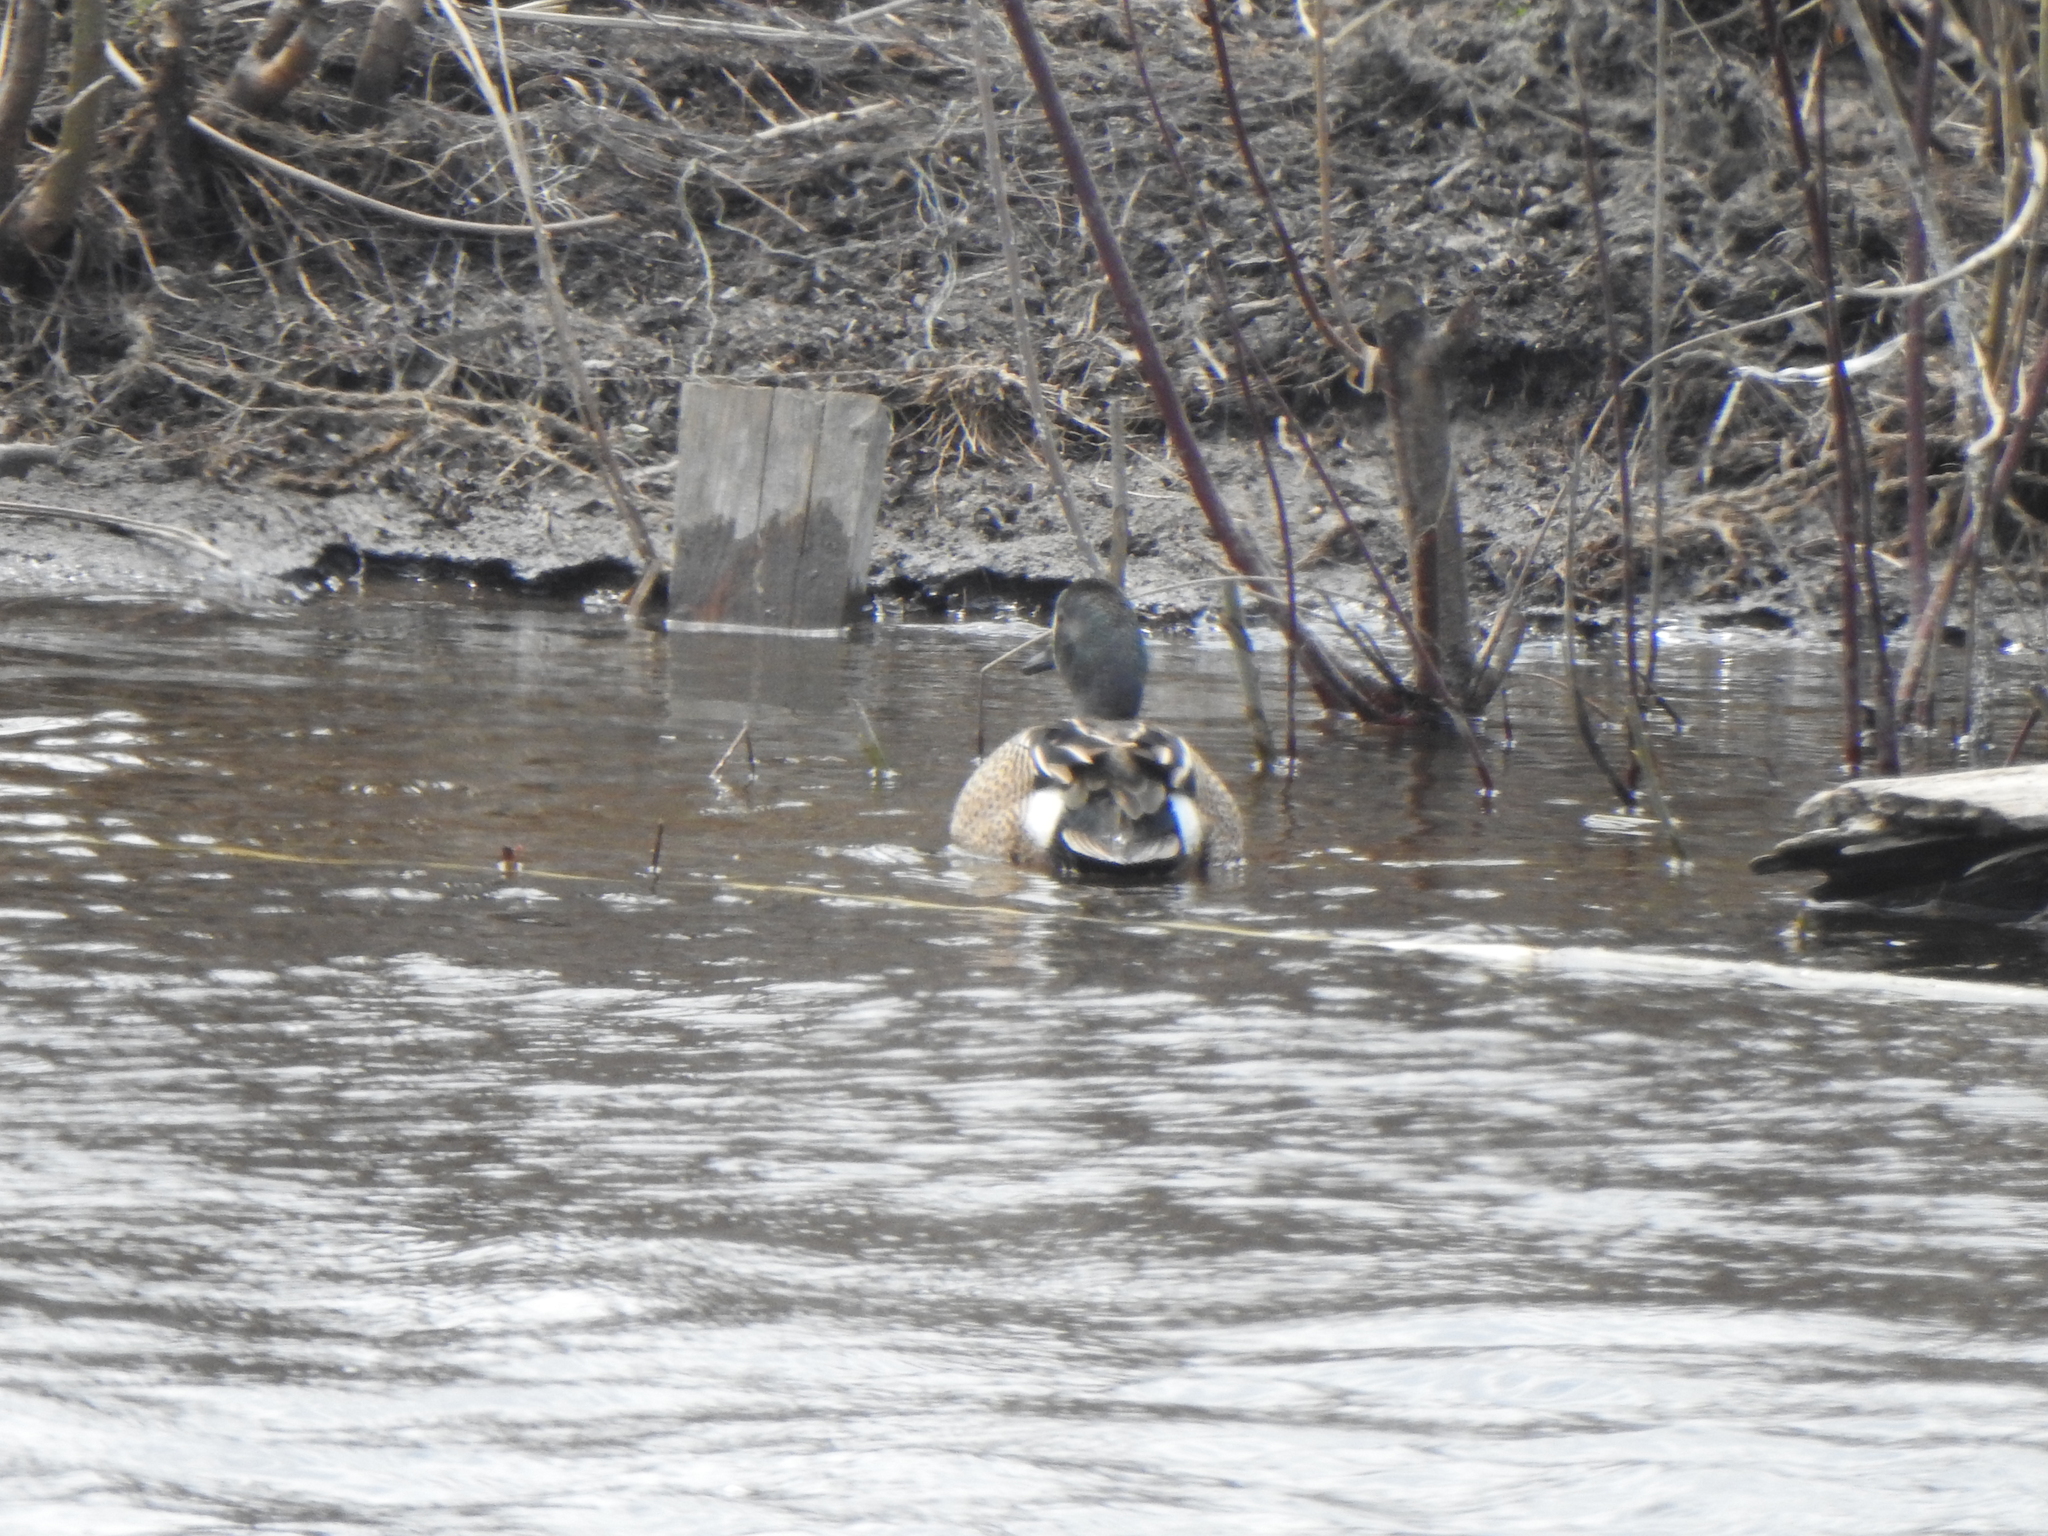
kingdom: Animalia
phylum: Chordata
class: Aves
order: Anseriformes
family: Anatidae
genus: Spatula
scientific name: Spatula discors
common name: Blue-winged teal
